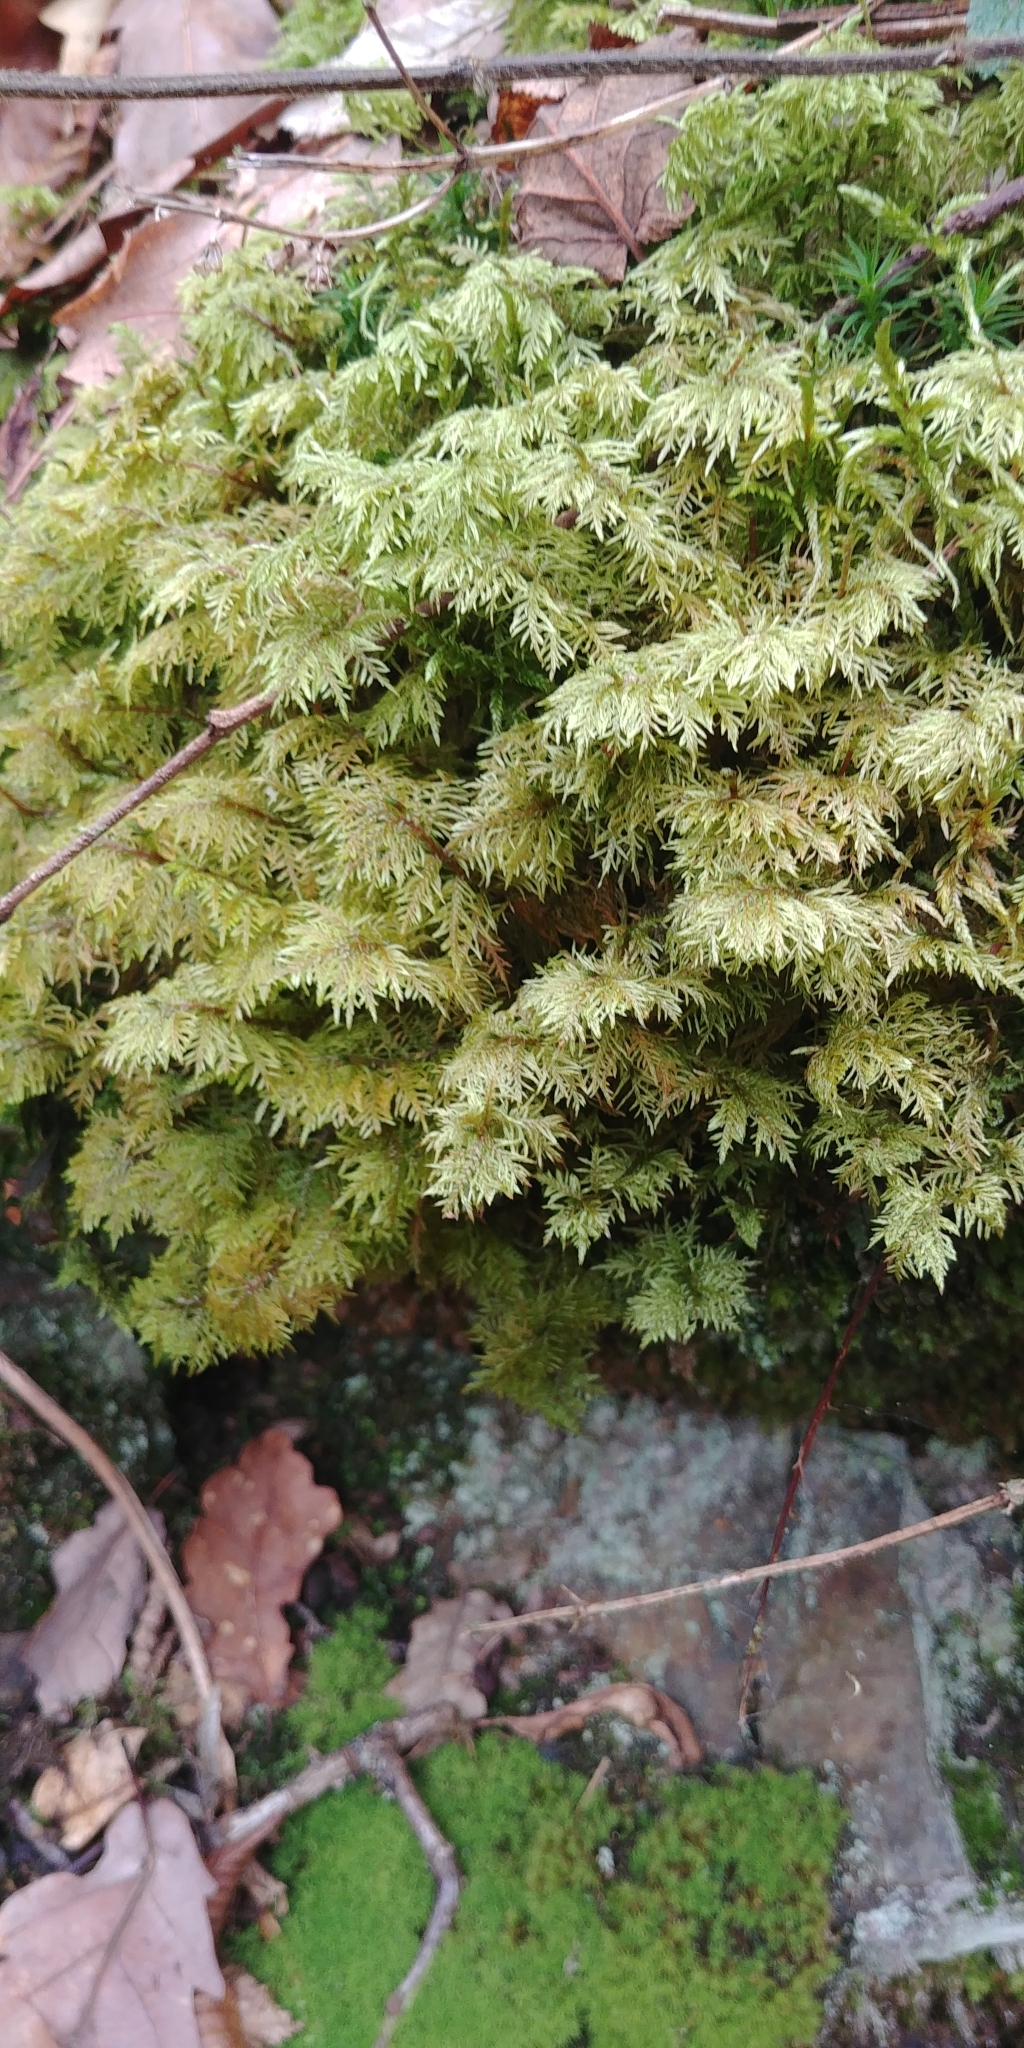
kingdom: Plantae
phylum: Bryophyta
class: Bryopsida
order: Hypnales
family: Hylocomiaceae
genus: Hylocomium
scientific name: Hylocomium splendens
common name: Stairstep moss
